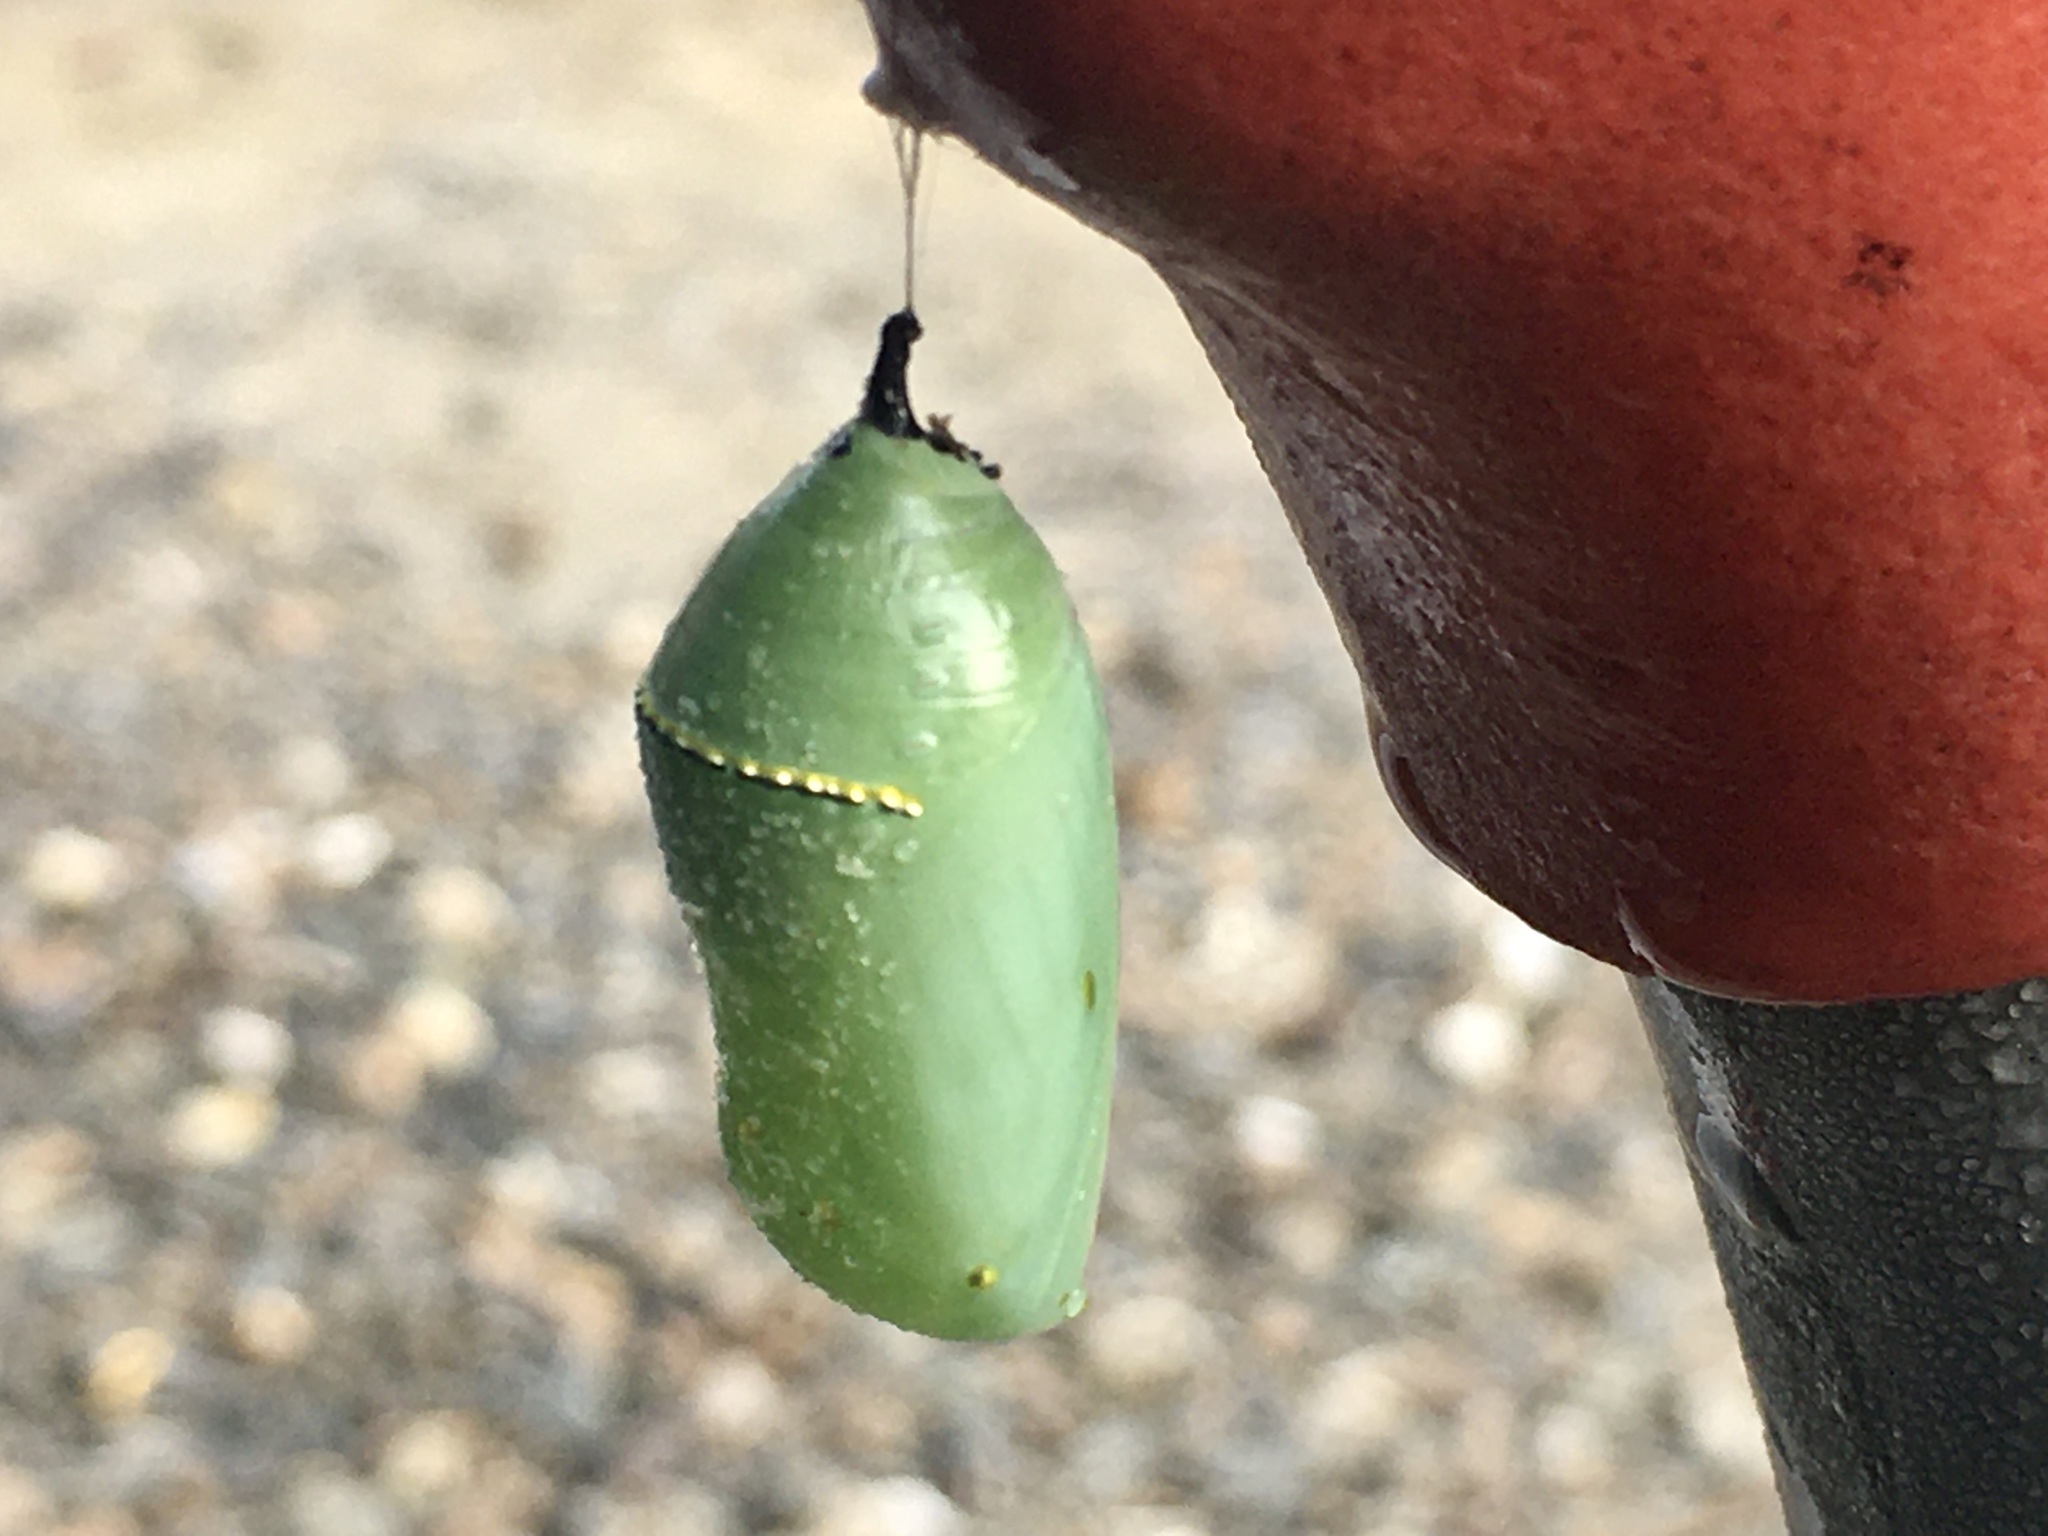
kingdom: Animalia
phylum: Arthropoda
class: Insecta
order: Lepidoptera
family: Nymphalidae
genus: Danaus
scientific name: Danaus plexippus
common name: Monarch
